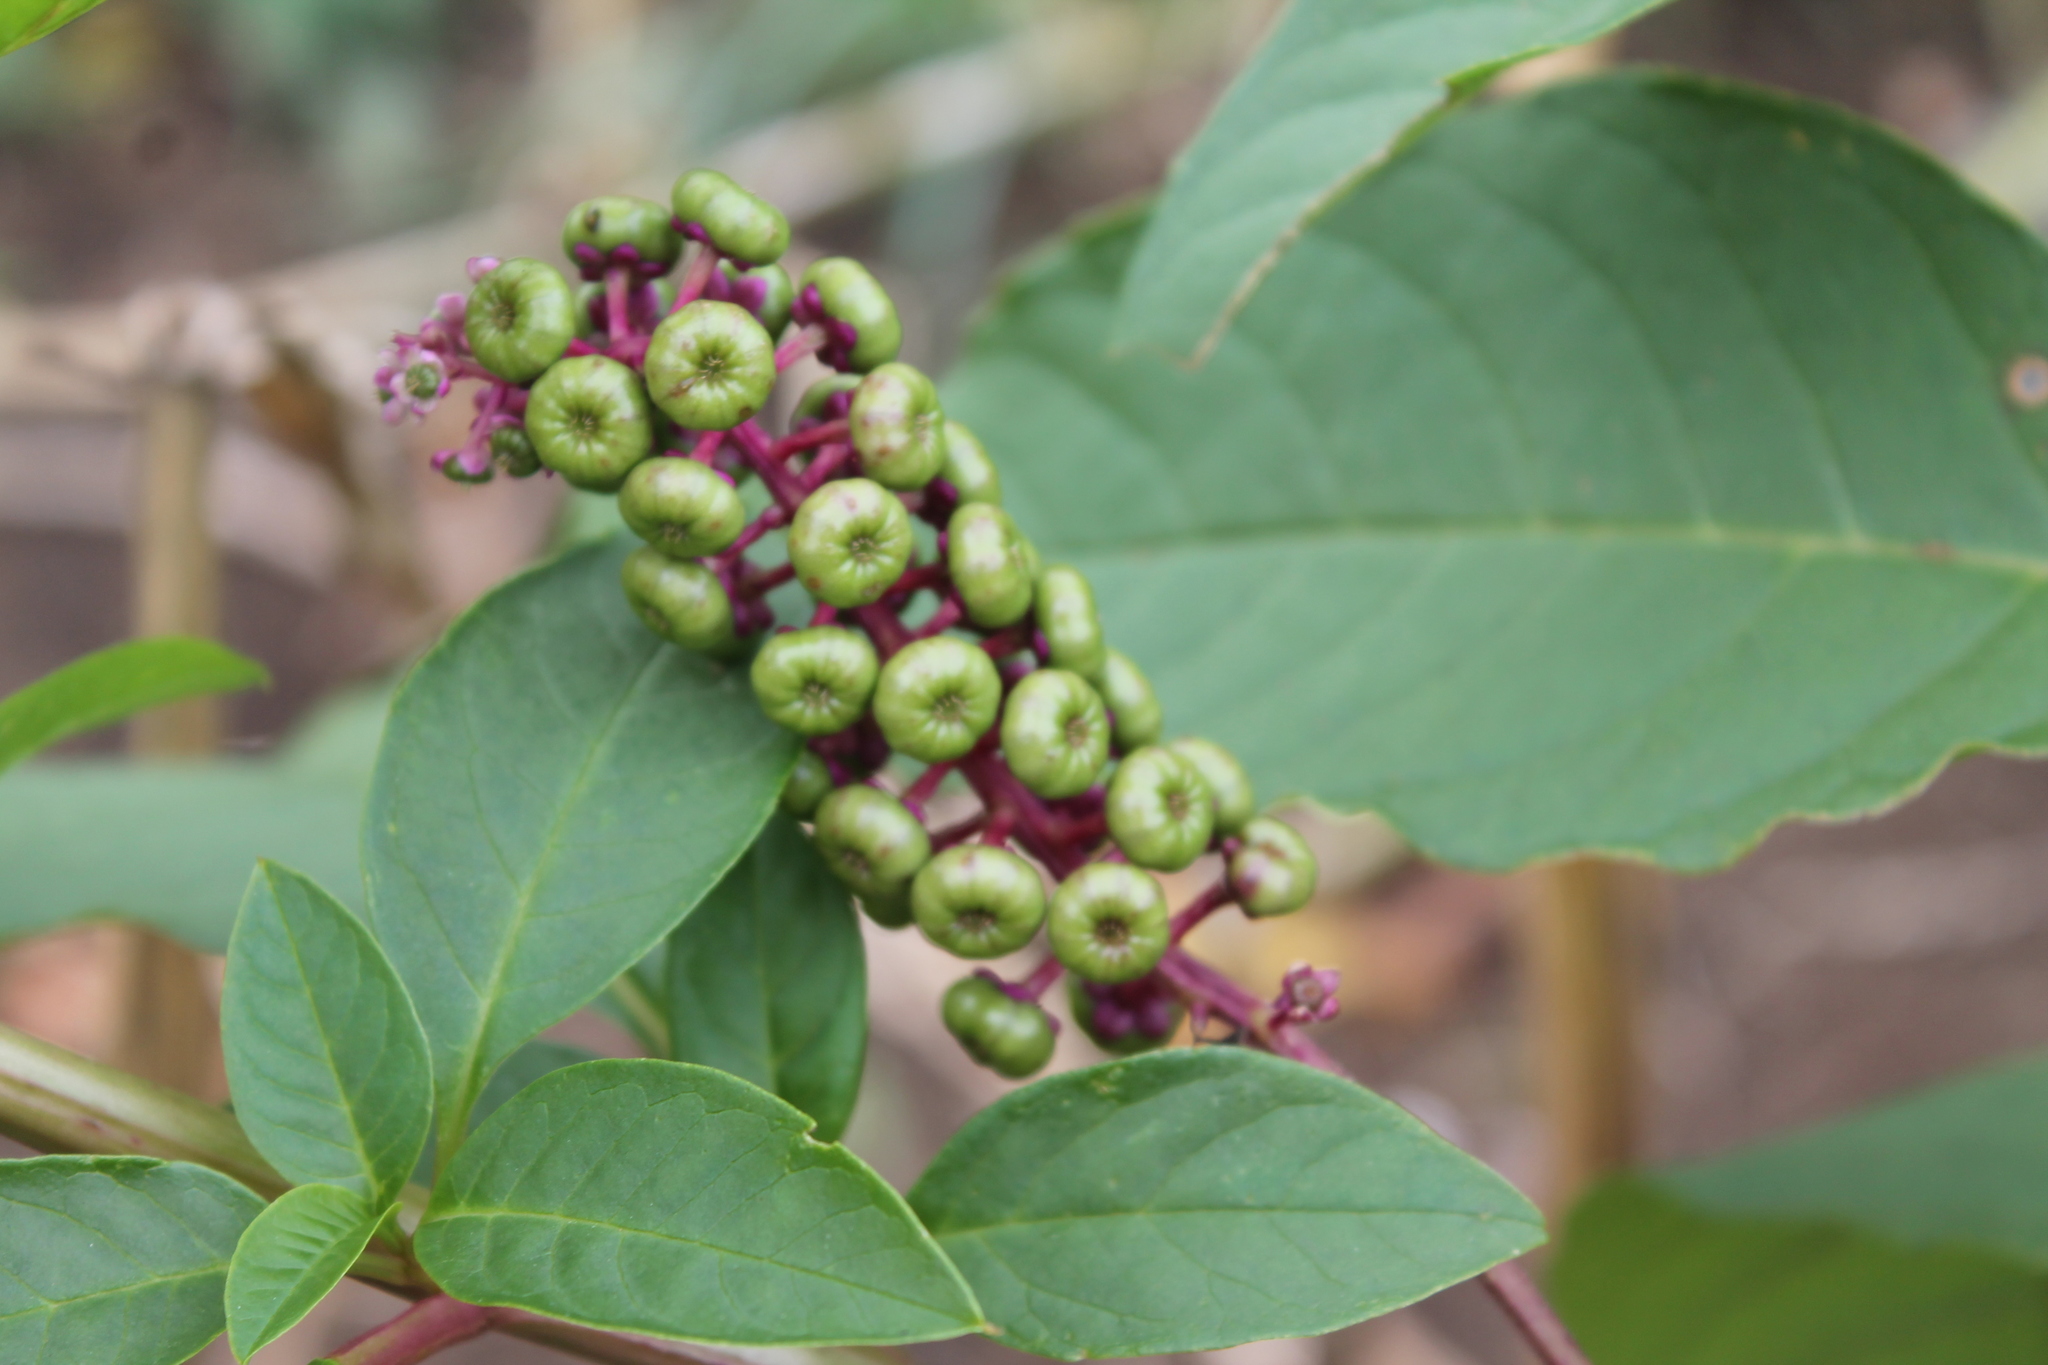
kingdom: Plantae
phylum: Tracheophyta
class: Magnoliopsida
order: Caryophyllales
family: Phytolaccaceae
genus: Phytolacca
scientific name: Phytolacca americana
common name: American pokeweed
